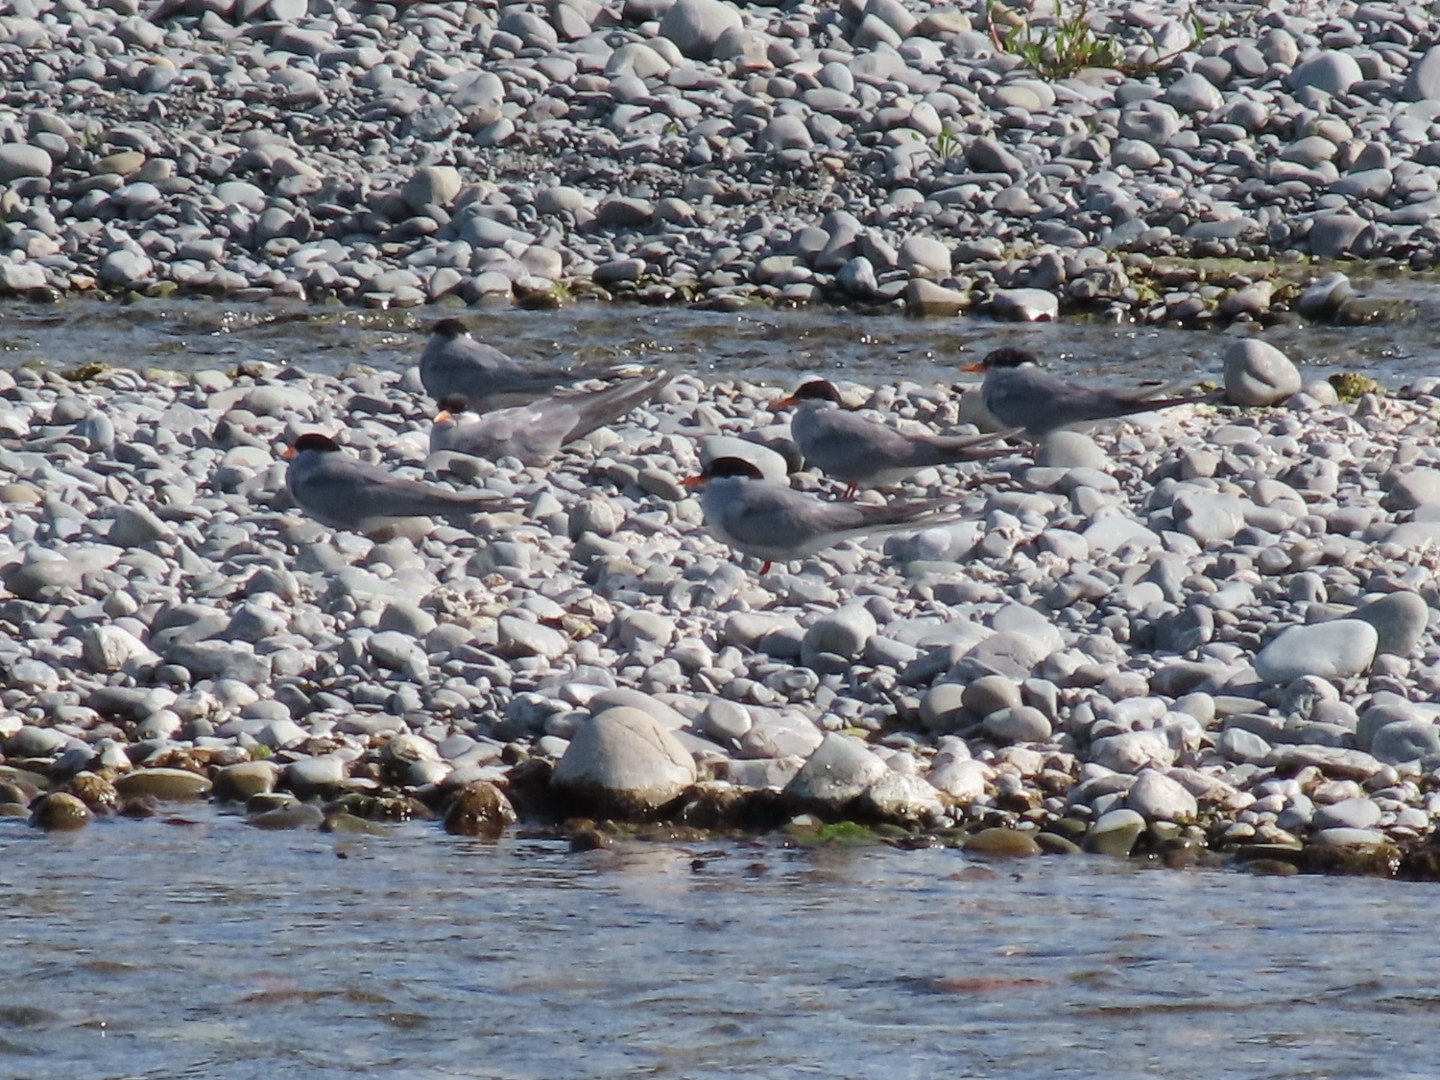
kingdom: Animalia
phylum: Chordata
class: Aves
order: Charadriiformes
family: Laridae
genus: Chlidonias
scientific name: Chlidonias albostriatus
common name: Black-fronted tern
